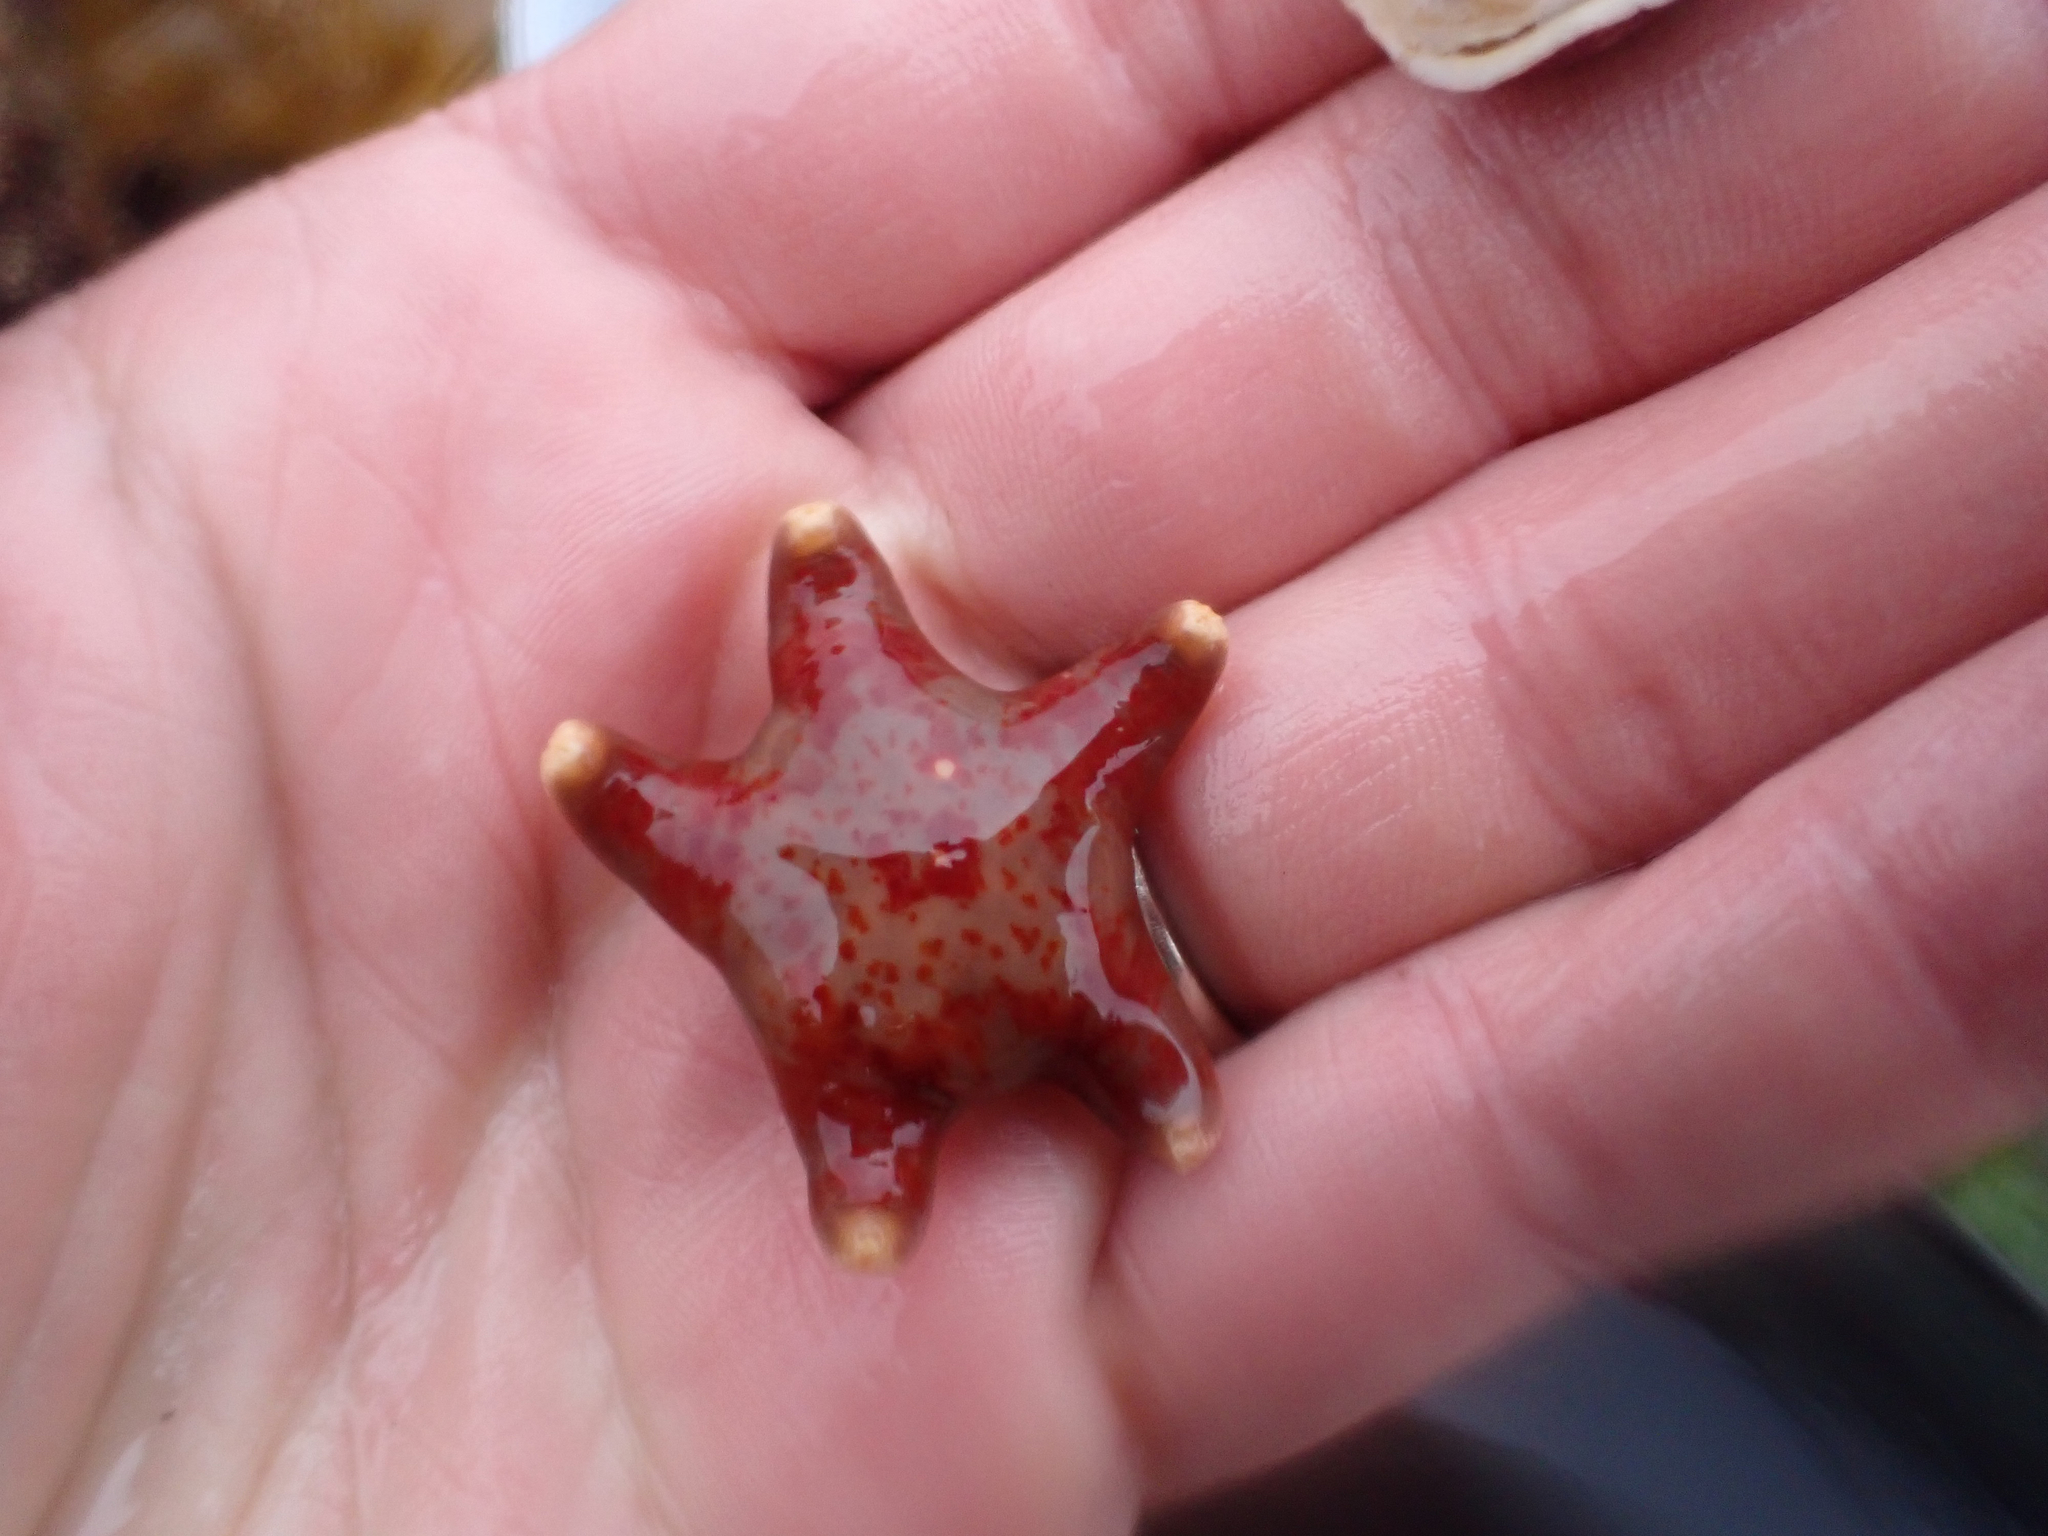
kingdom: Animalia
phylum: Echinodermata
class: Asteroidea
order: Valvatida
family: Asteropseidae
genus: Dermasterias
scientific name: Dermasterias imbricata
